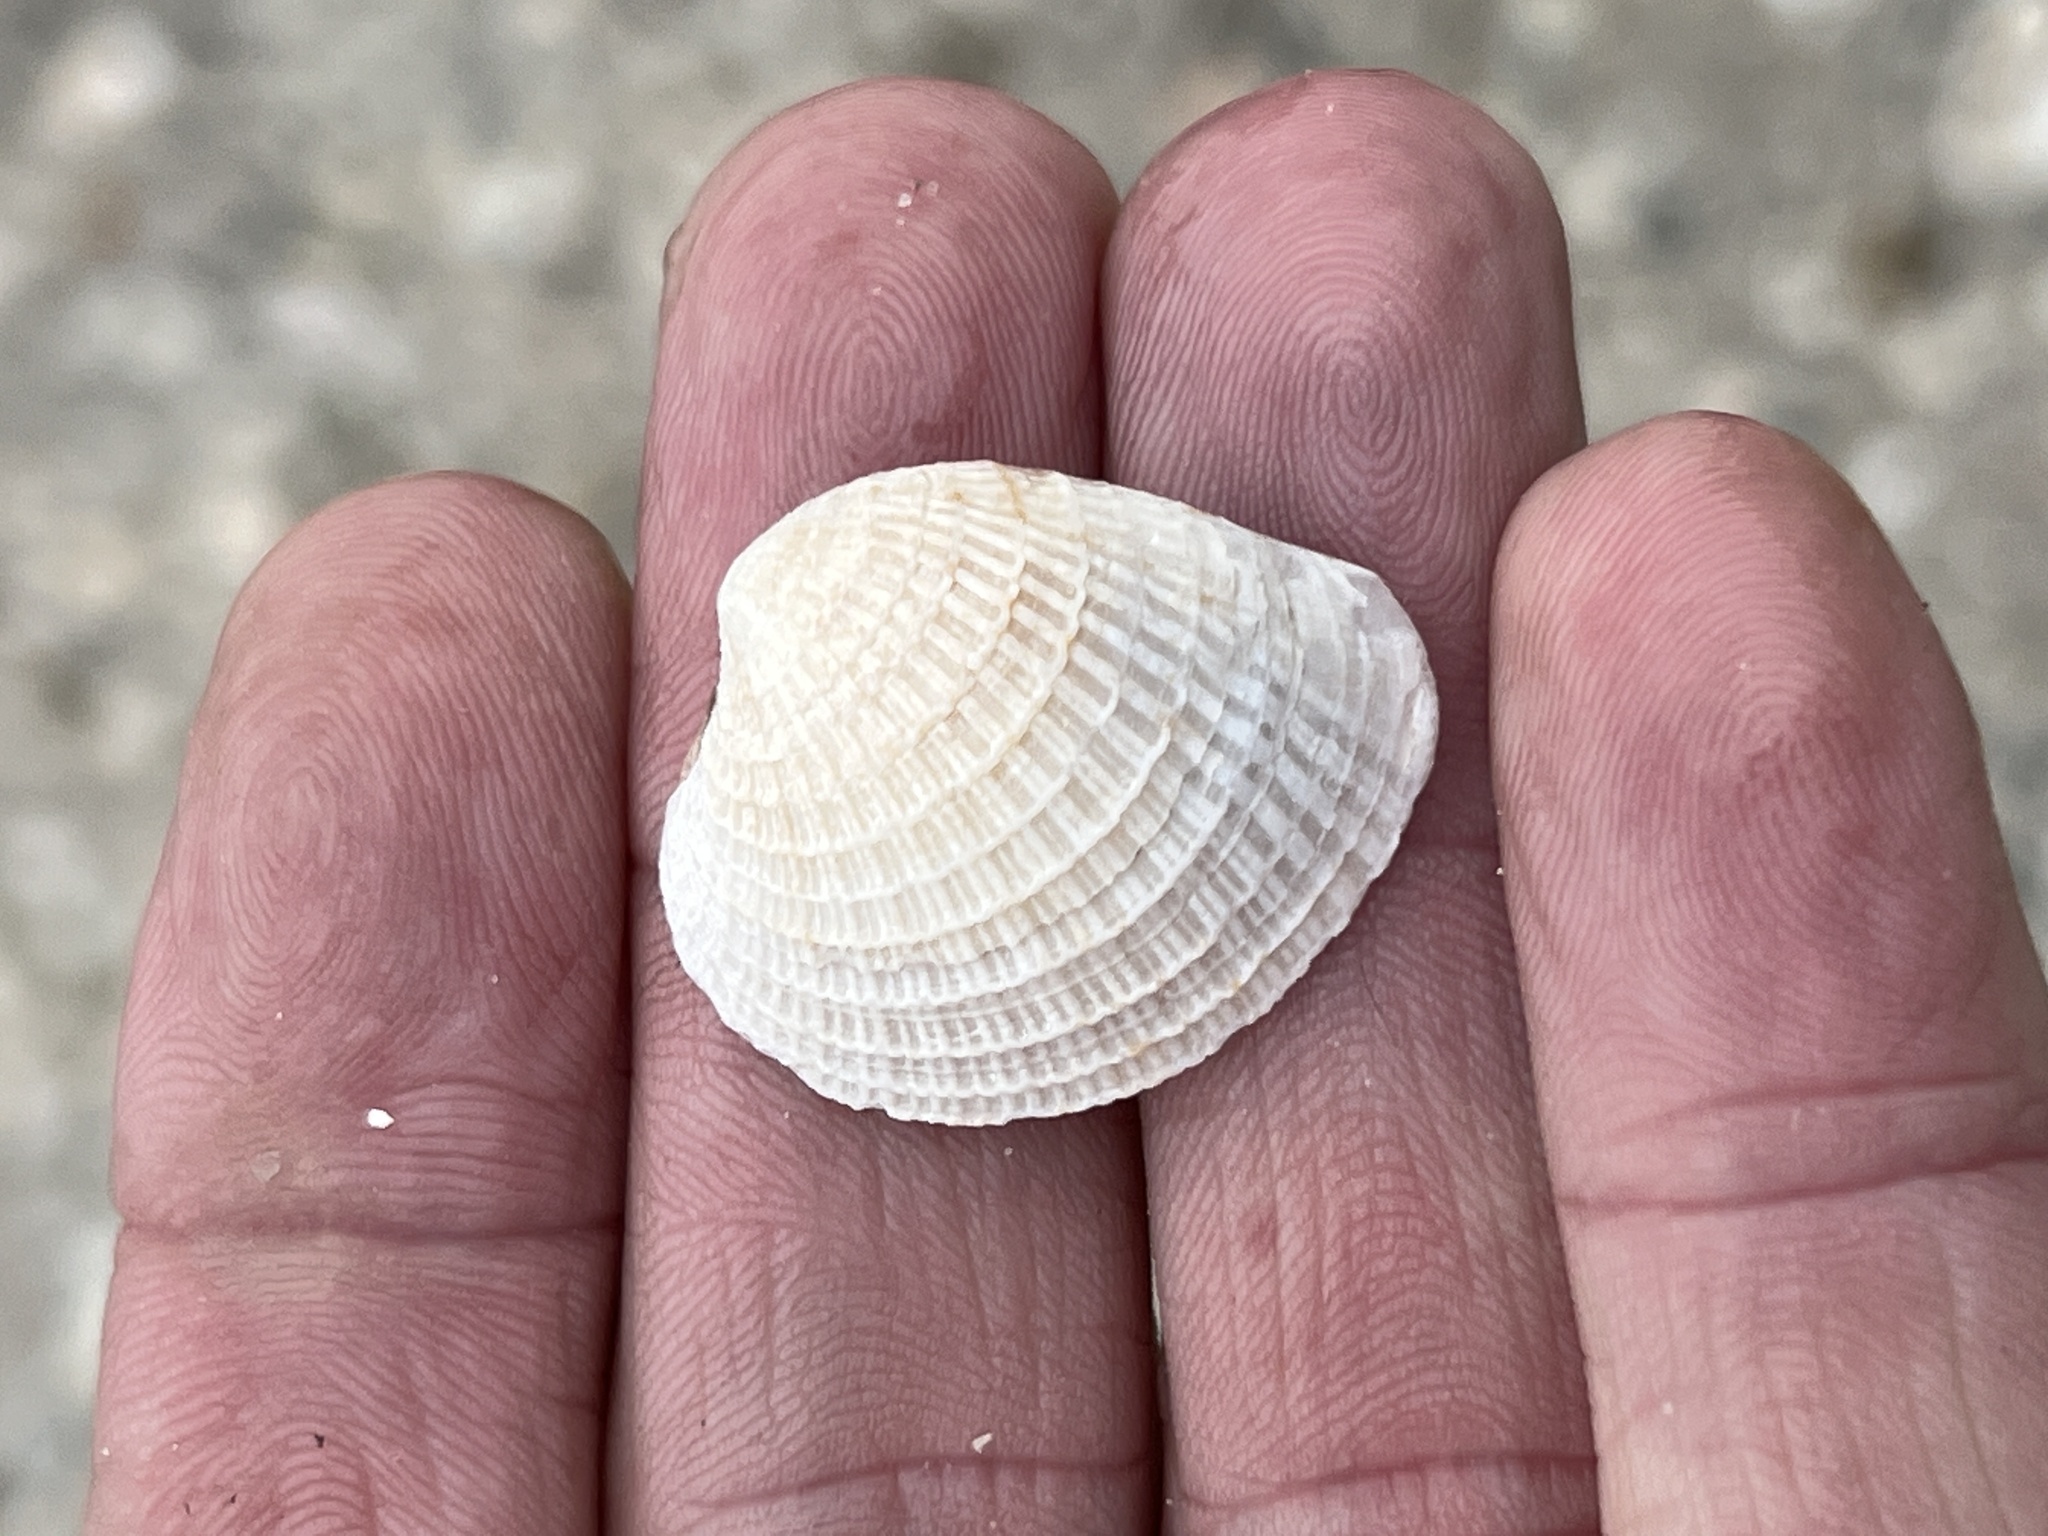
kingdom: Animalia
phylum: Mollusca
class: Bivalvia
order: Venerida
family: Veneridae
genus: Chione
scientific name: Chione elevata
